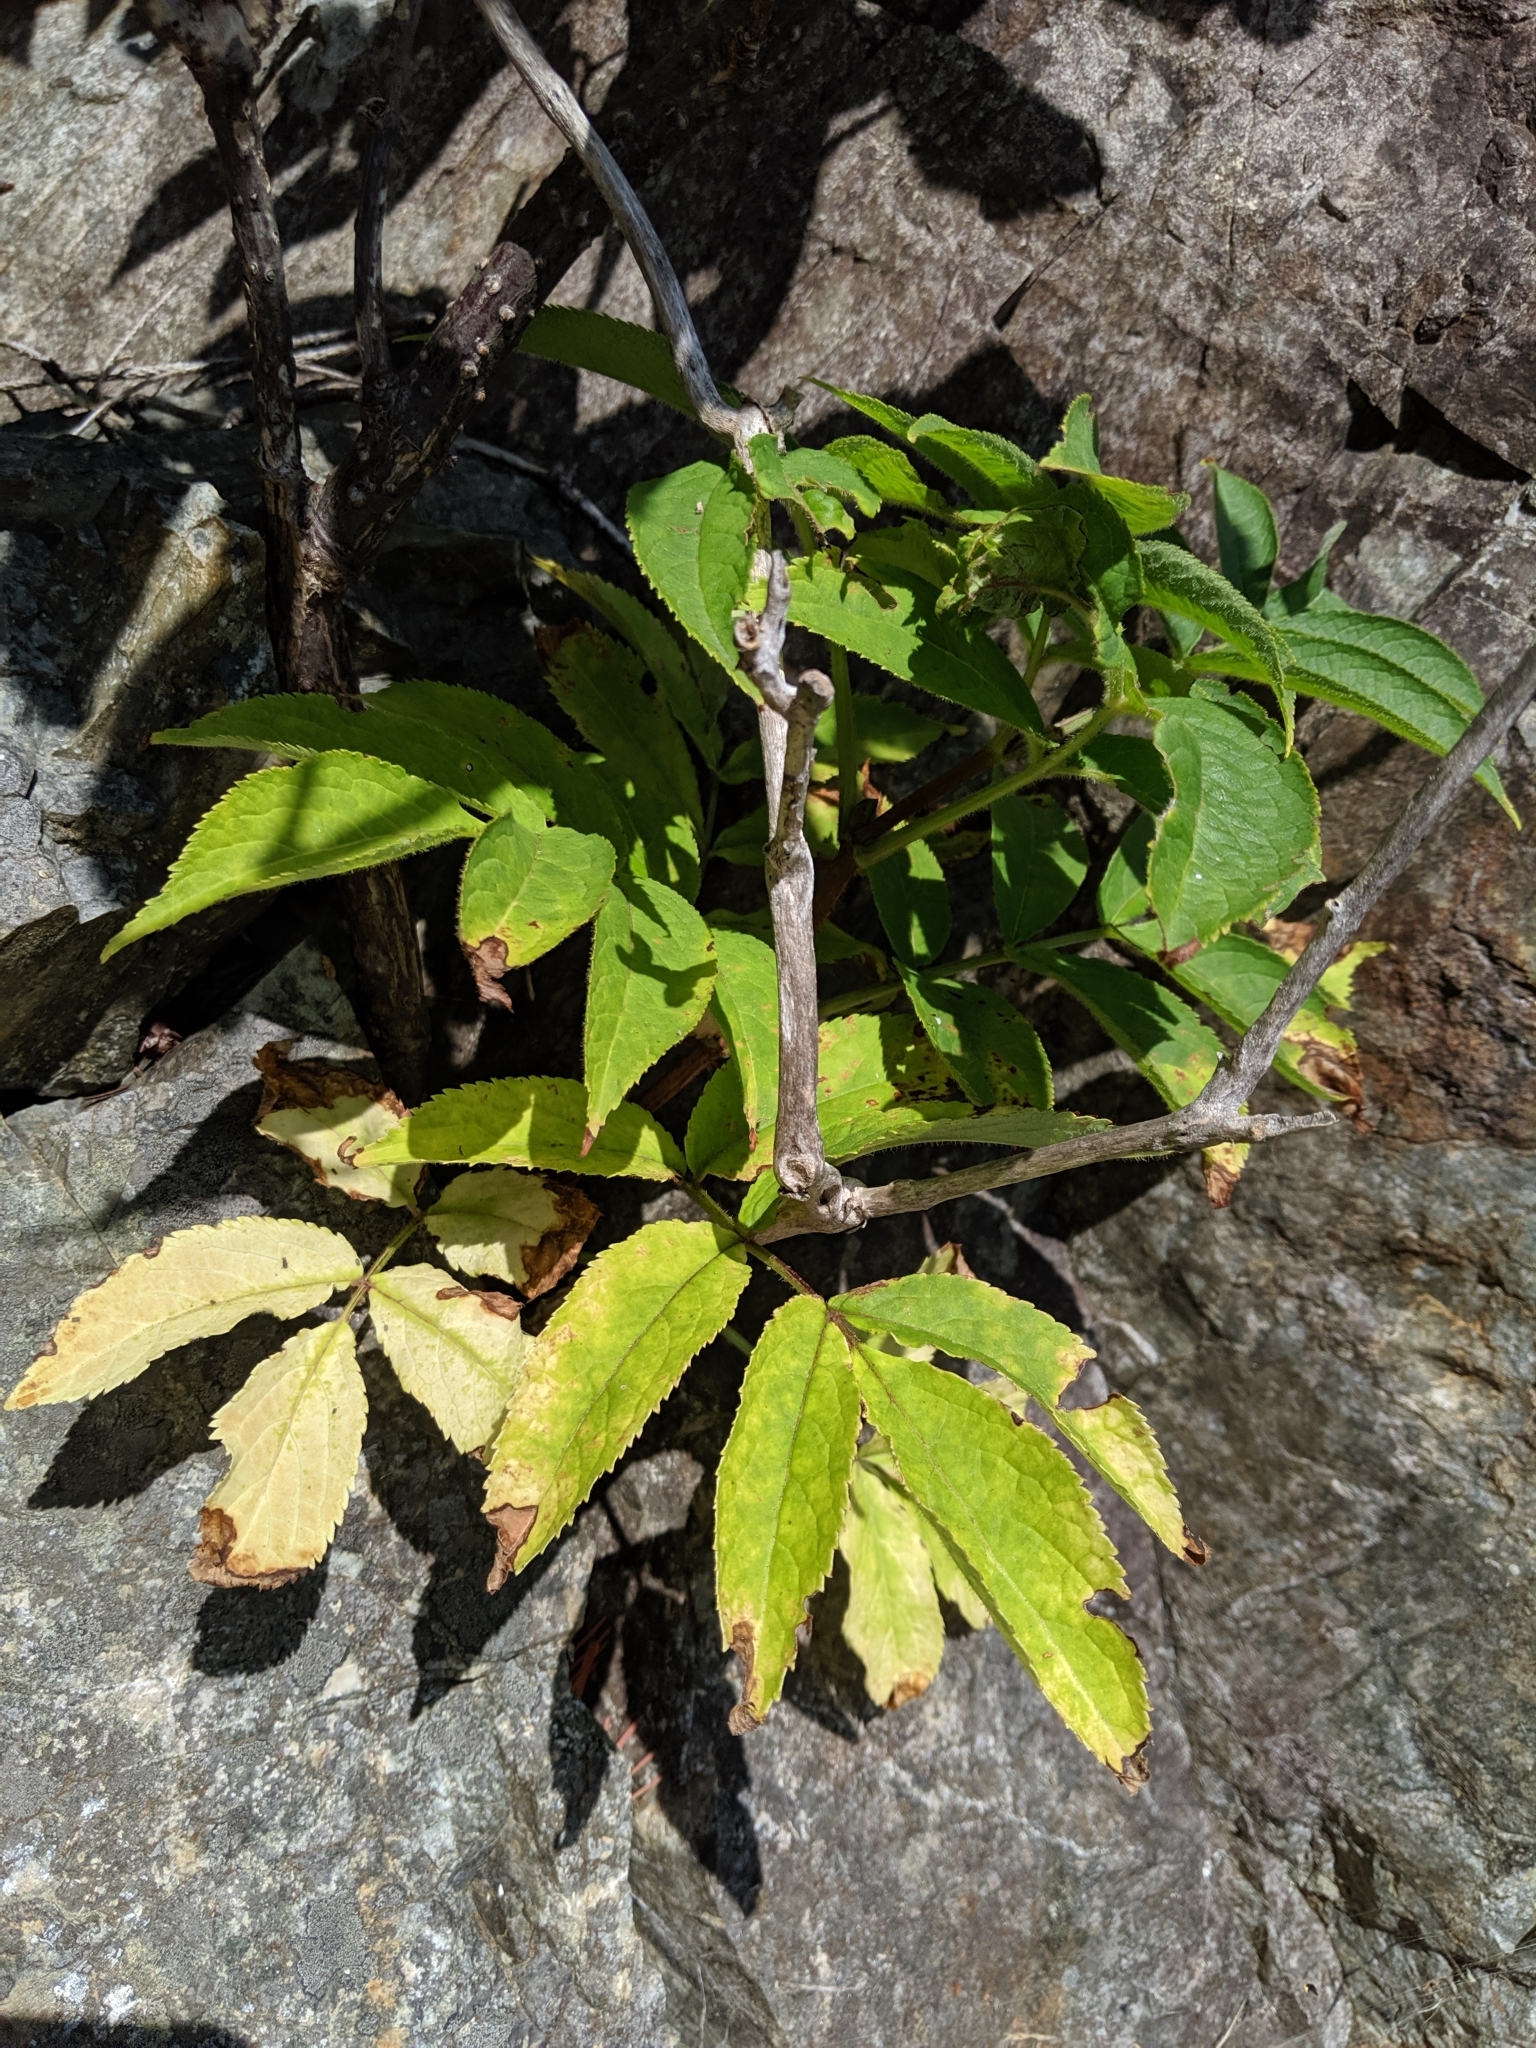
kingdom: Plantae
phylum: Tracheophyta
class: Magnoliopsida
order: Dipsacales
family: Viburnaceae
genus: Sambucus
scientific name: Sambucus racemosa
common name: Red-berried elder
